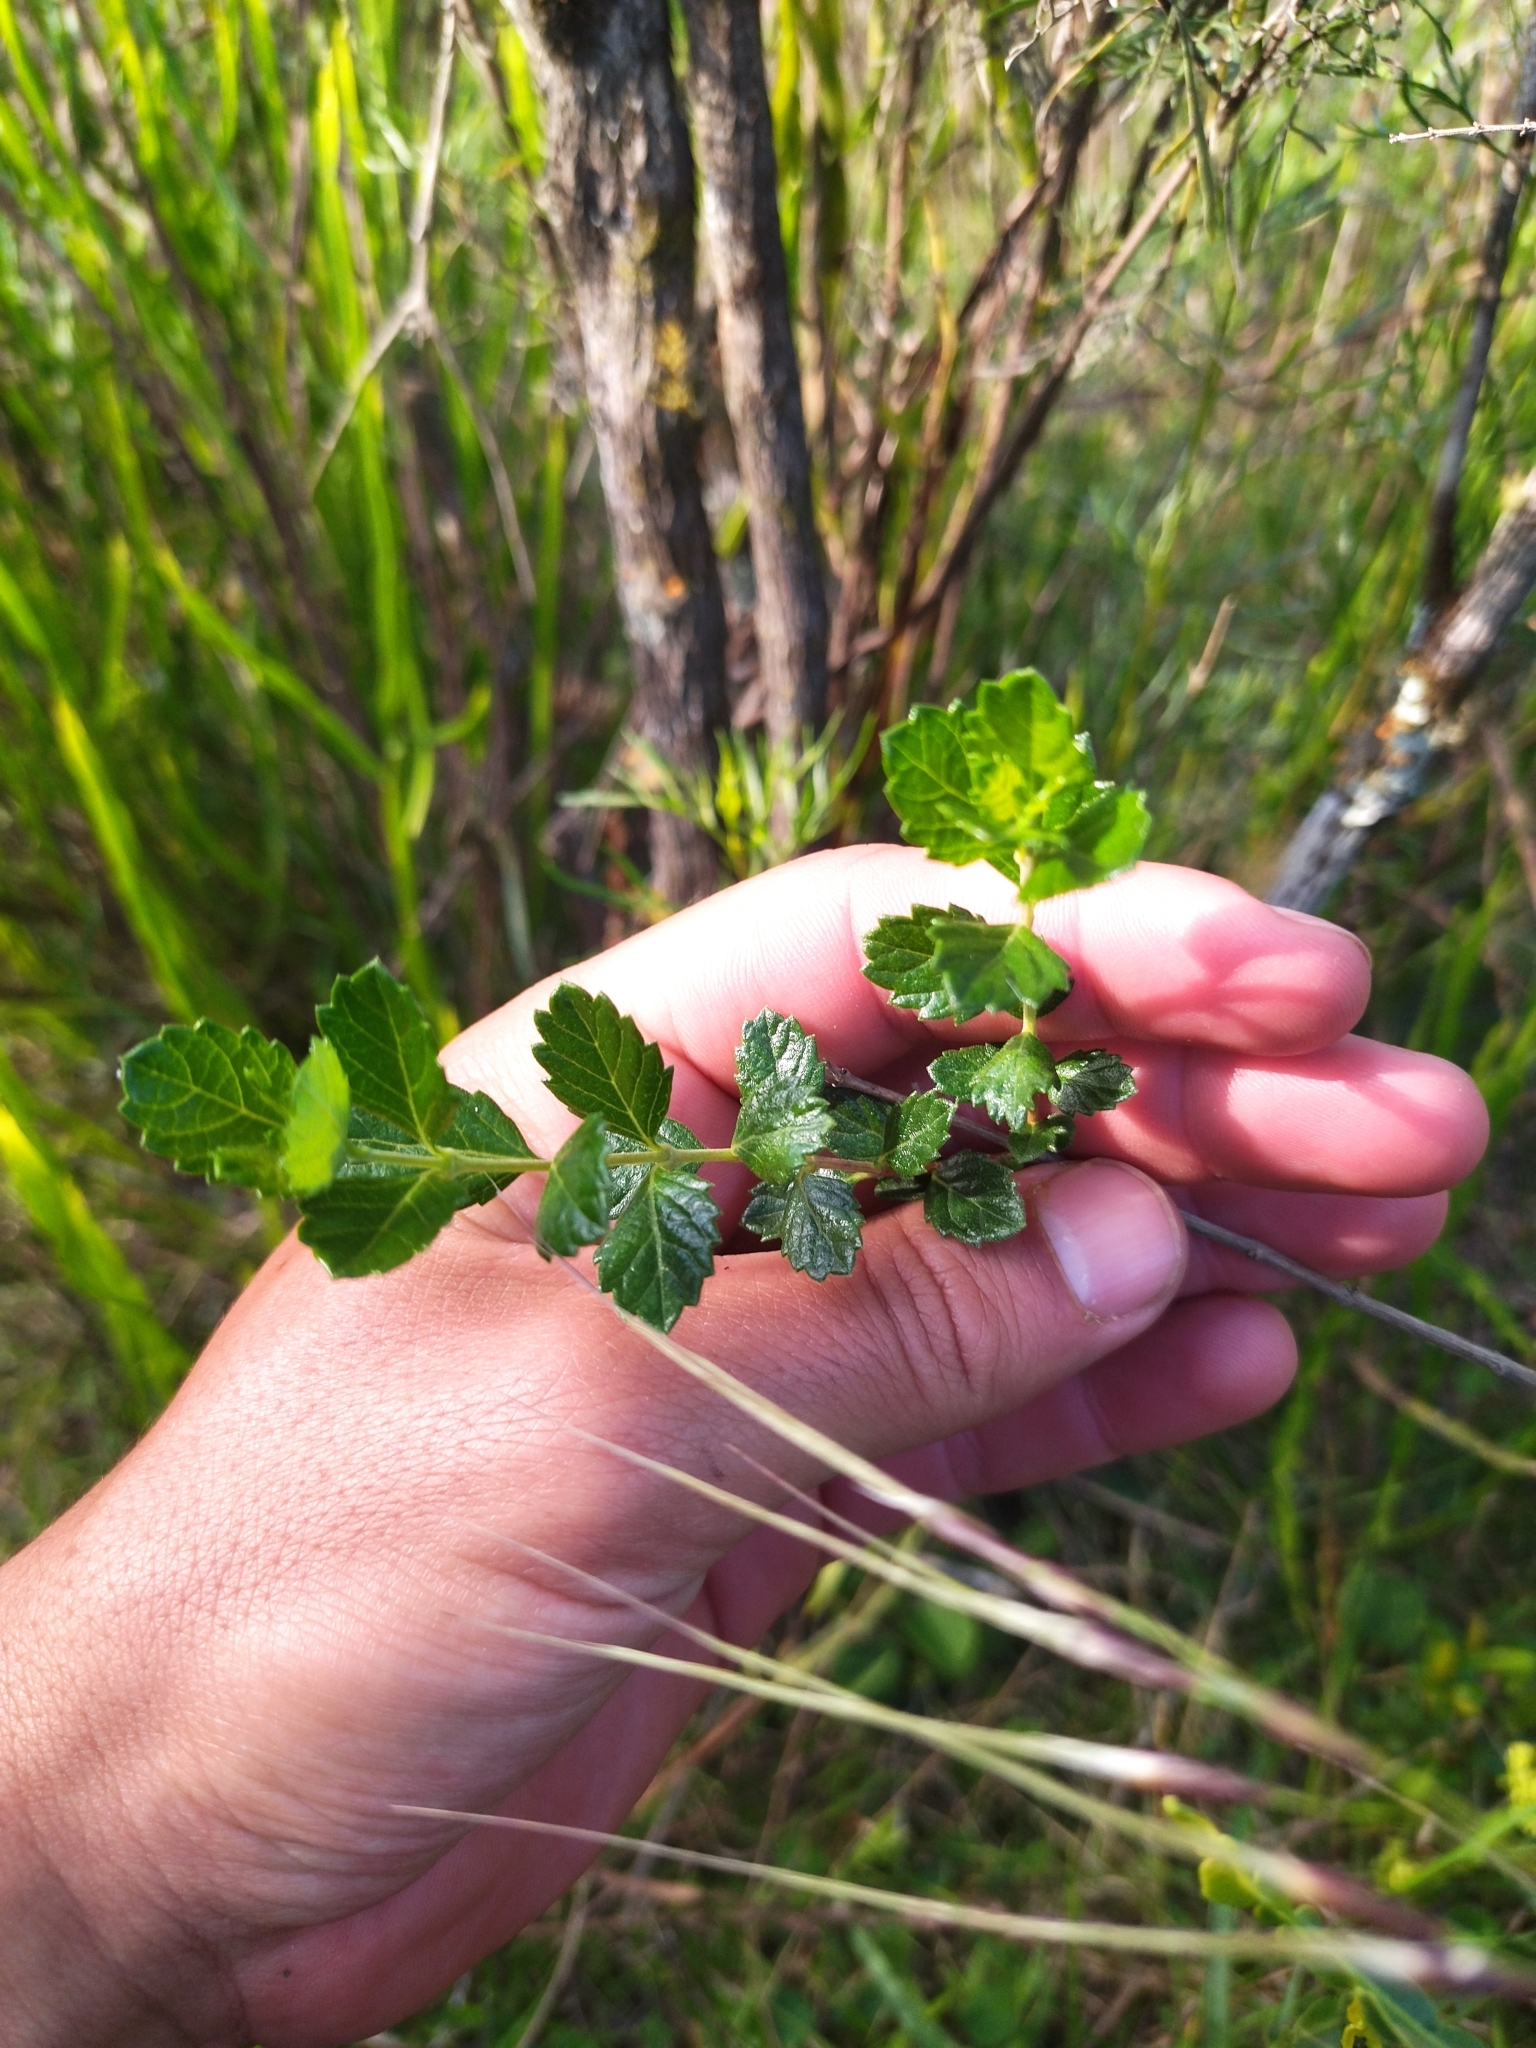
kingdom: Plantae
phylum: Tracheophyta
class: Magnoliopsida
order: Lamiales
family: Verbenaceae
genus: Aloysia
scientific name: Aloysia chamaedryfolia
